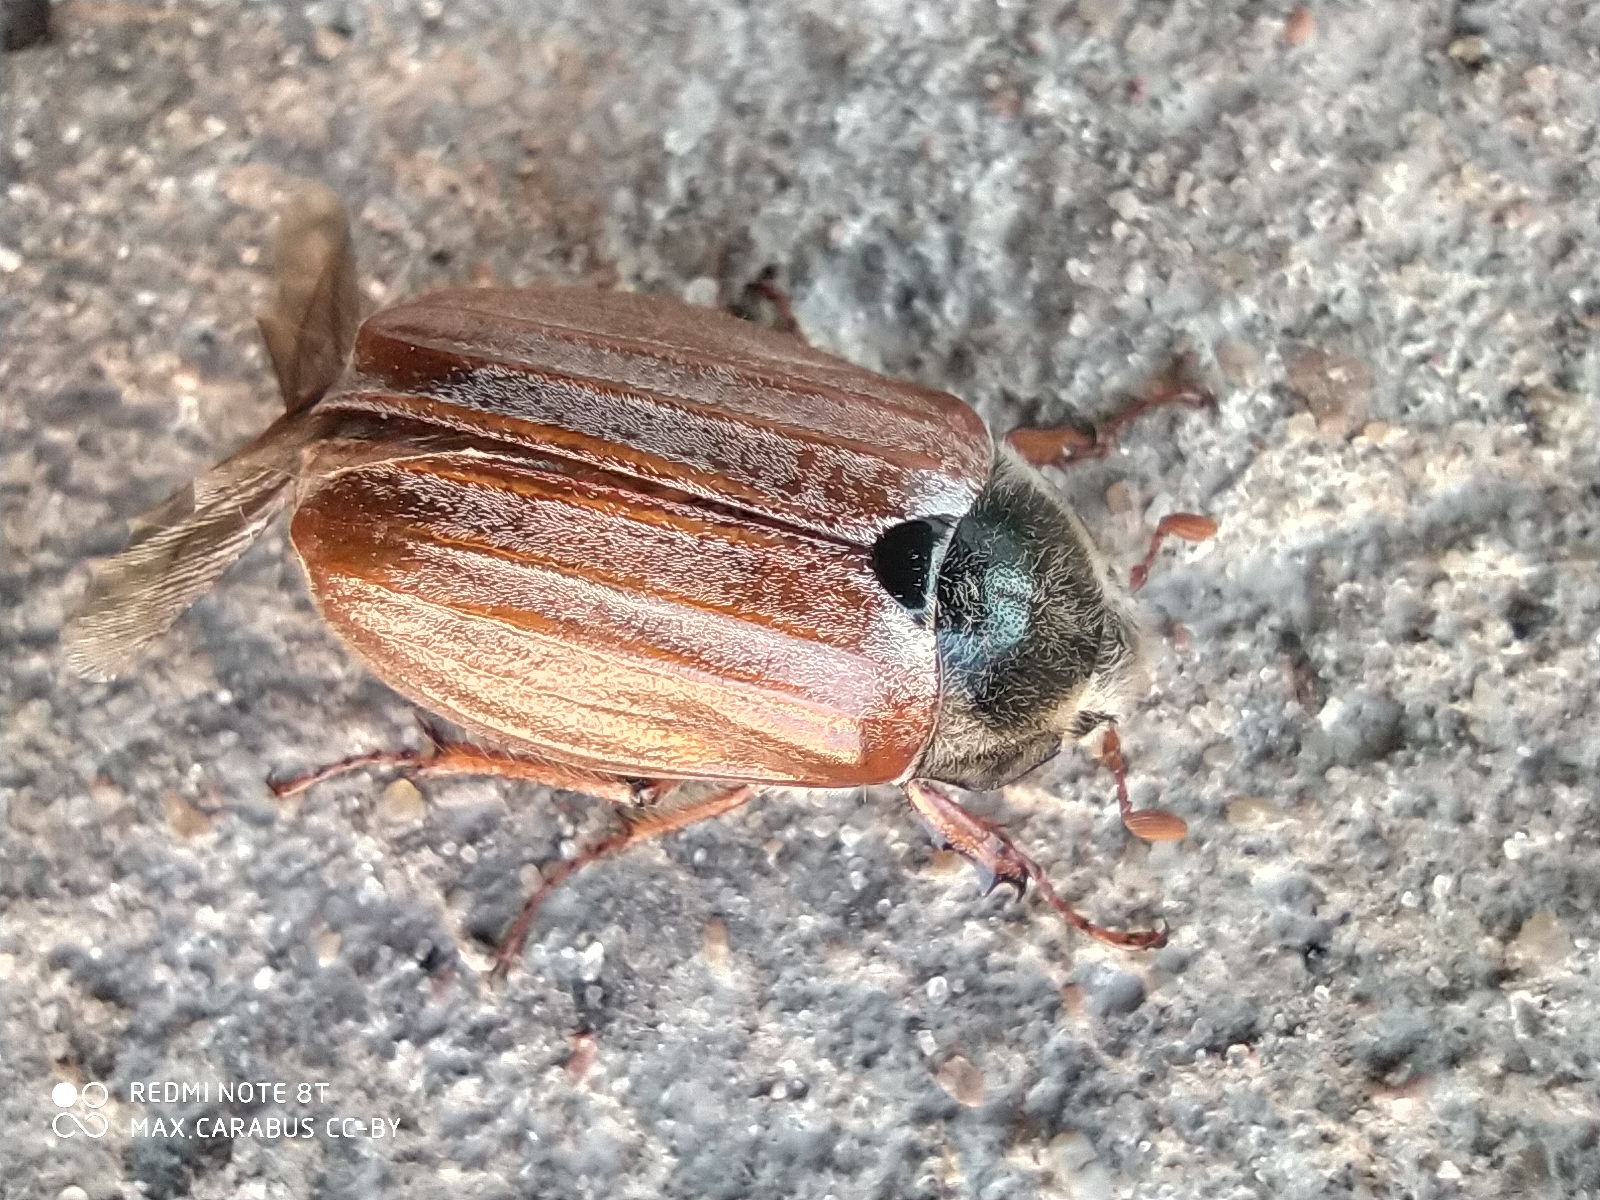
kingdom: Animalia
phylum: Arthropoda
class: Insecta
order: Coleoptera
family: Scarabaeidae
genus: Melolontha
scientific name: Melolontha melolontha
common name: Cockchafer maybeetle
